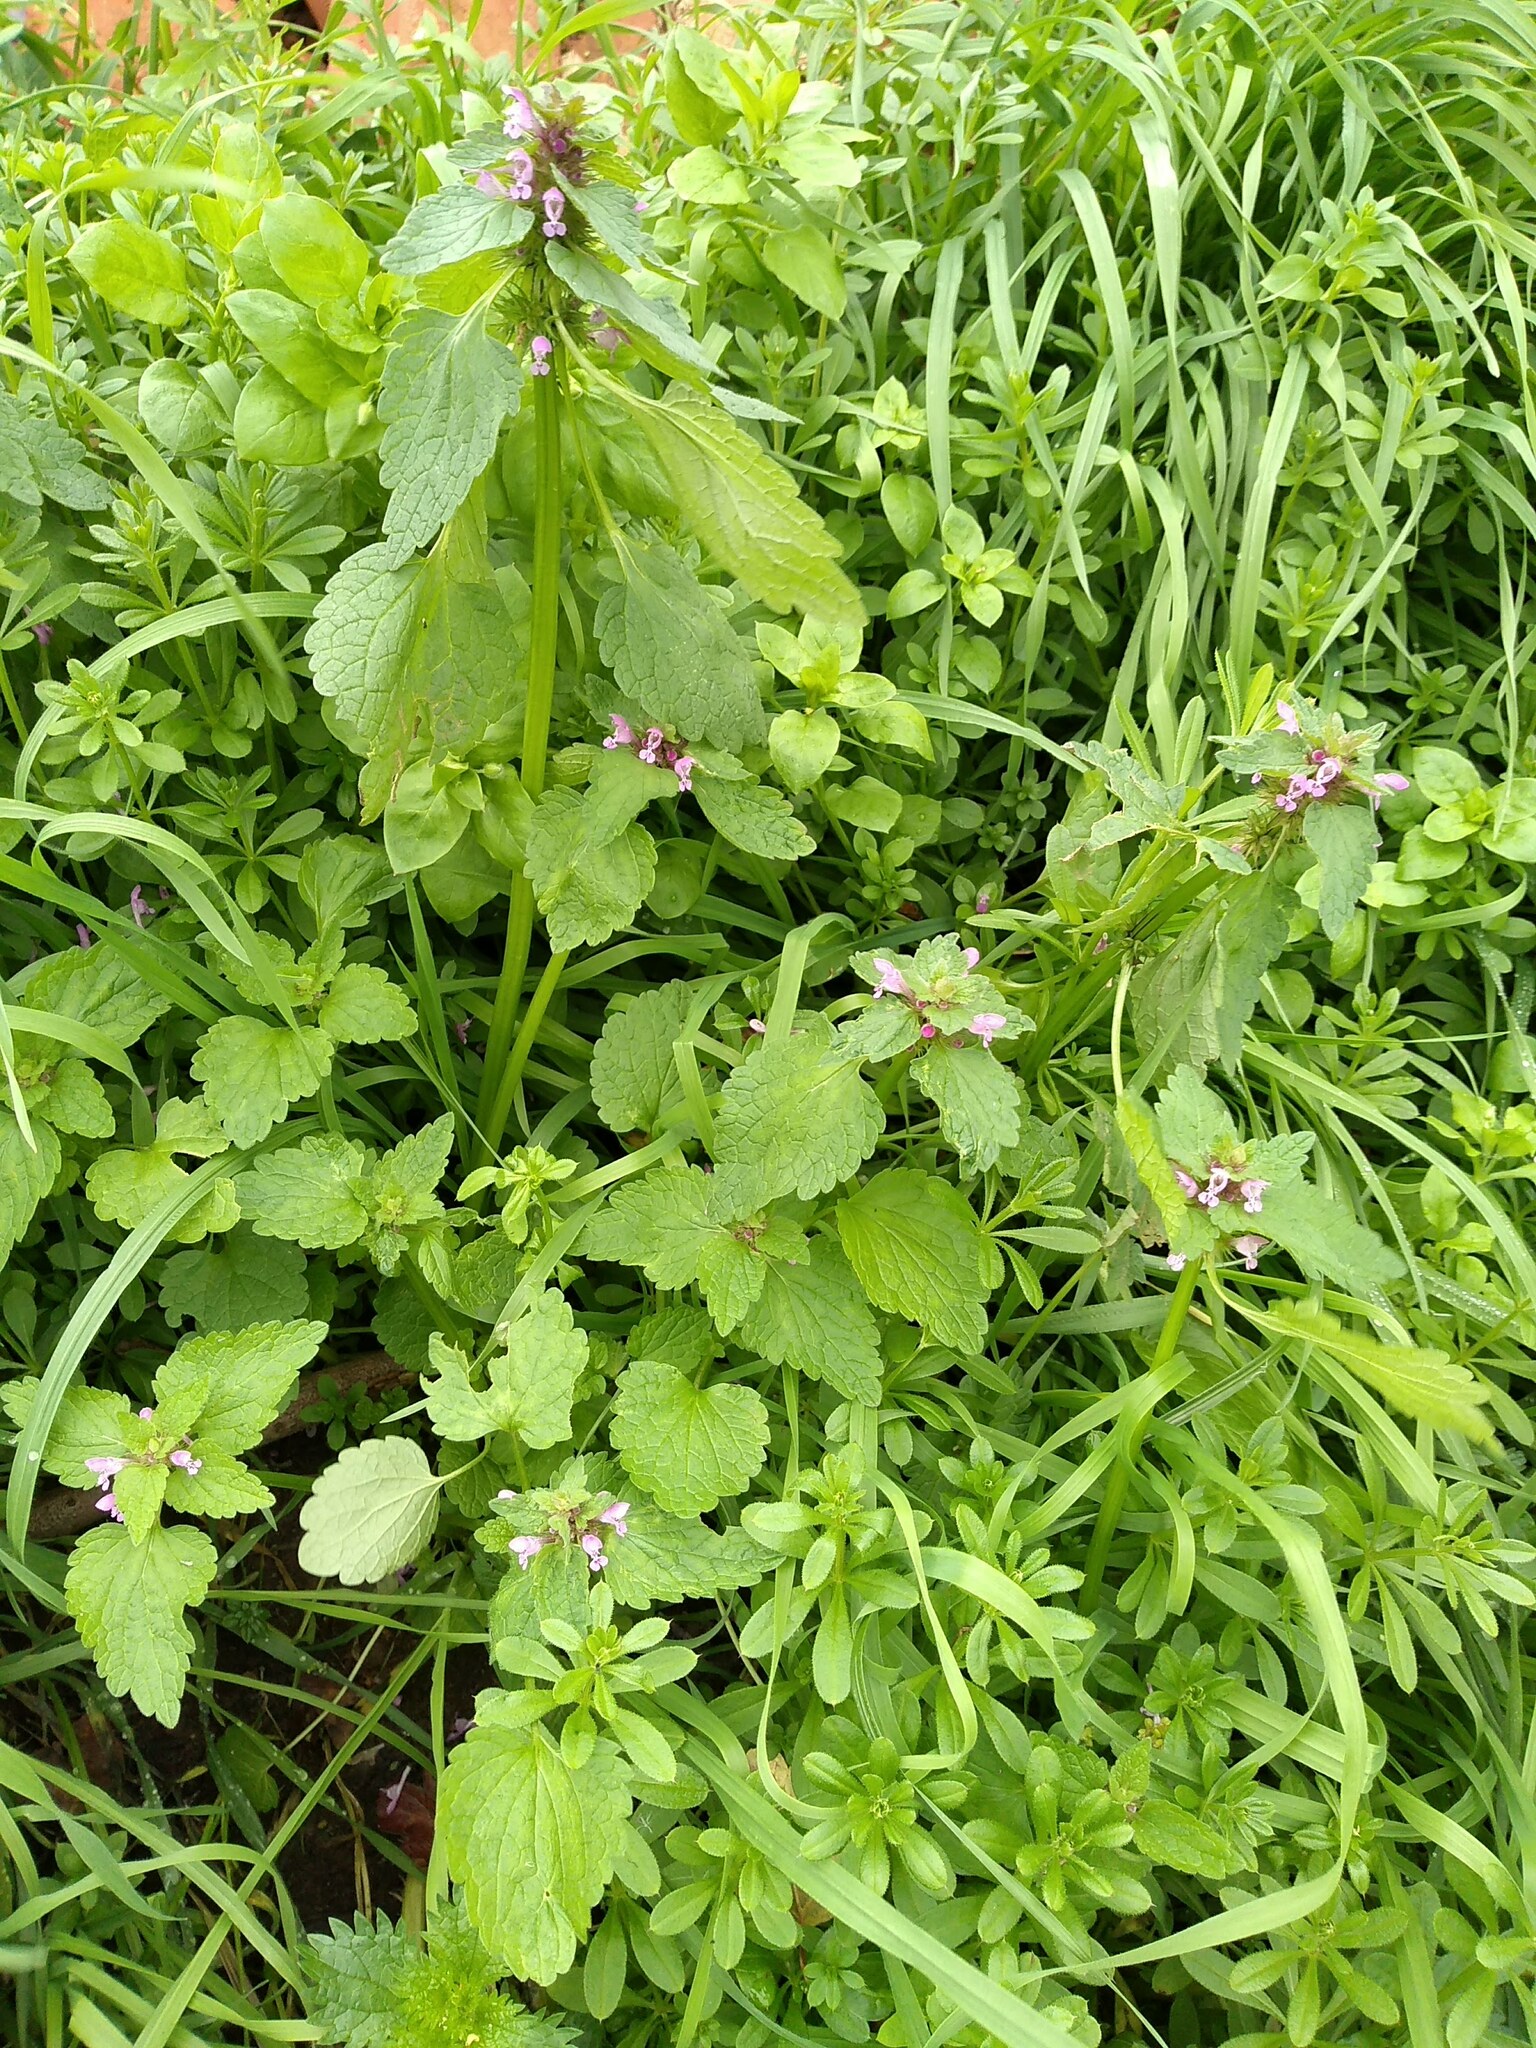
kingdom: Plantae
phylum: Tracheophyta
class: Magnoliopsida
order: Lamiales
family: Lamiaceae
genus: Lamium
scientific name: Lamium purpureum
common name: Red dead-nettle
